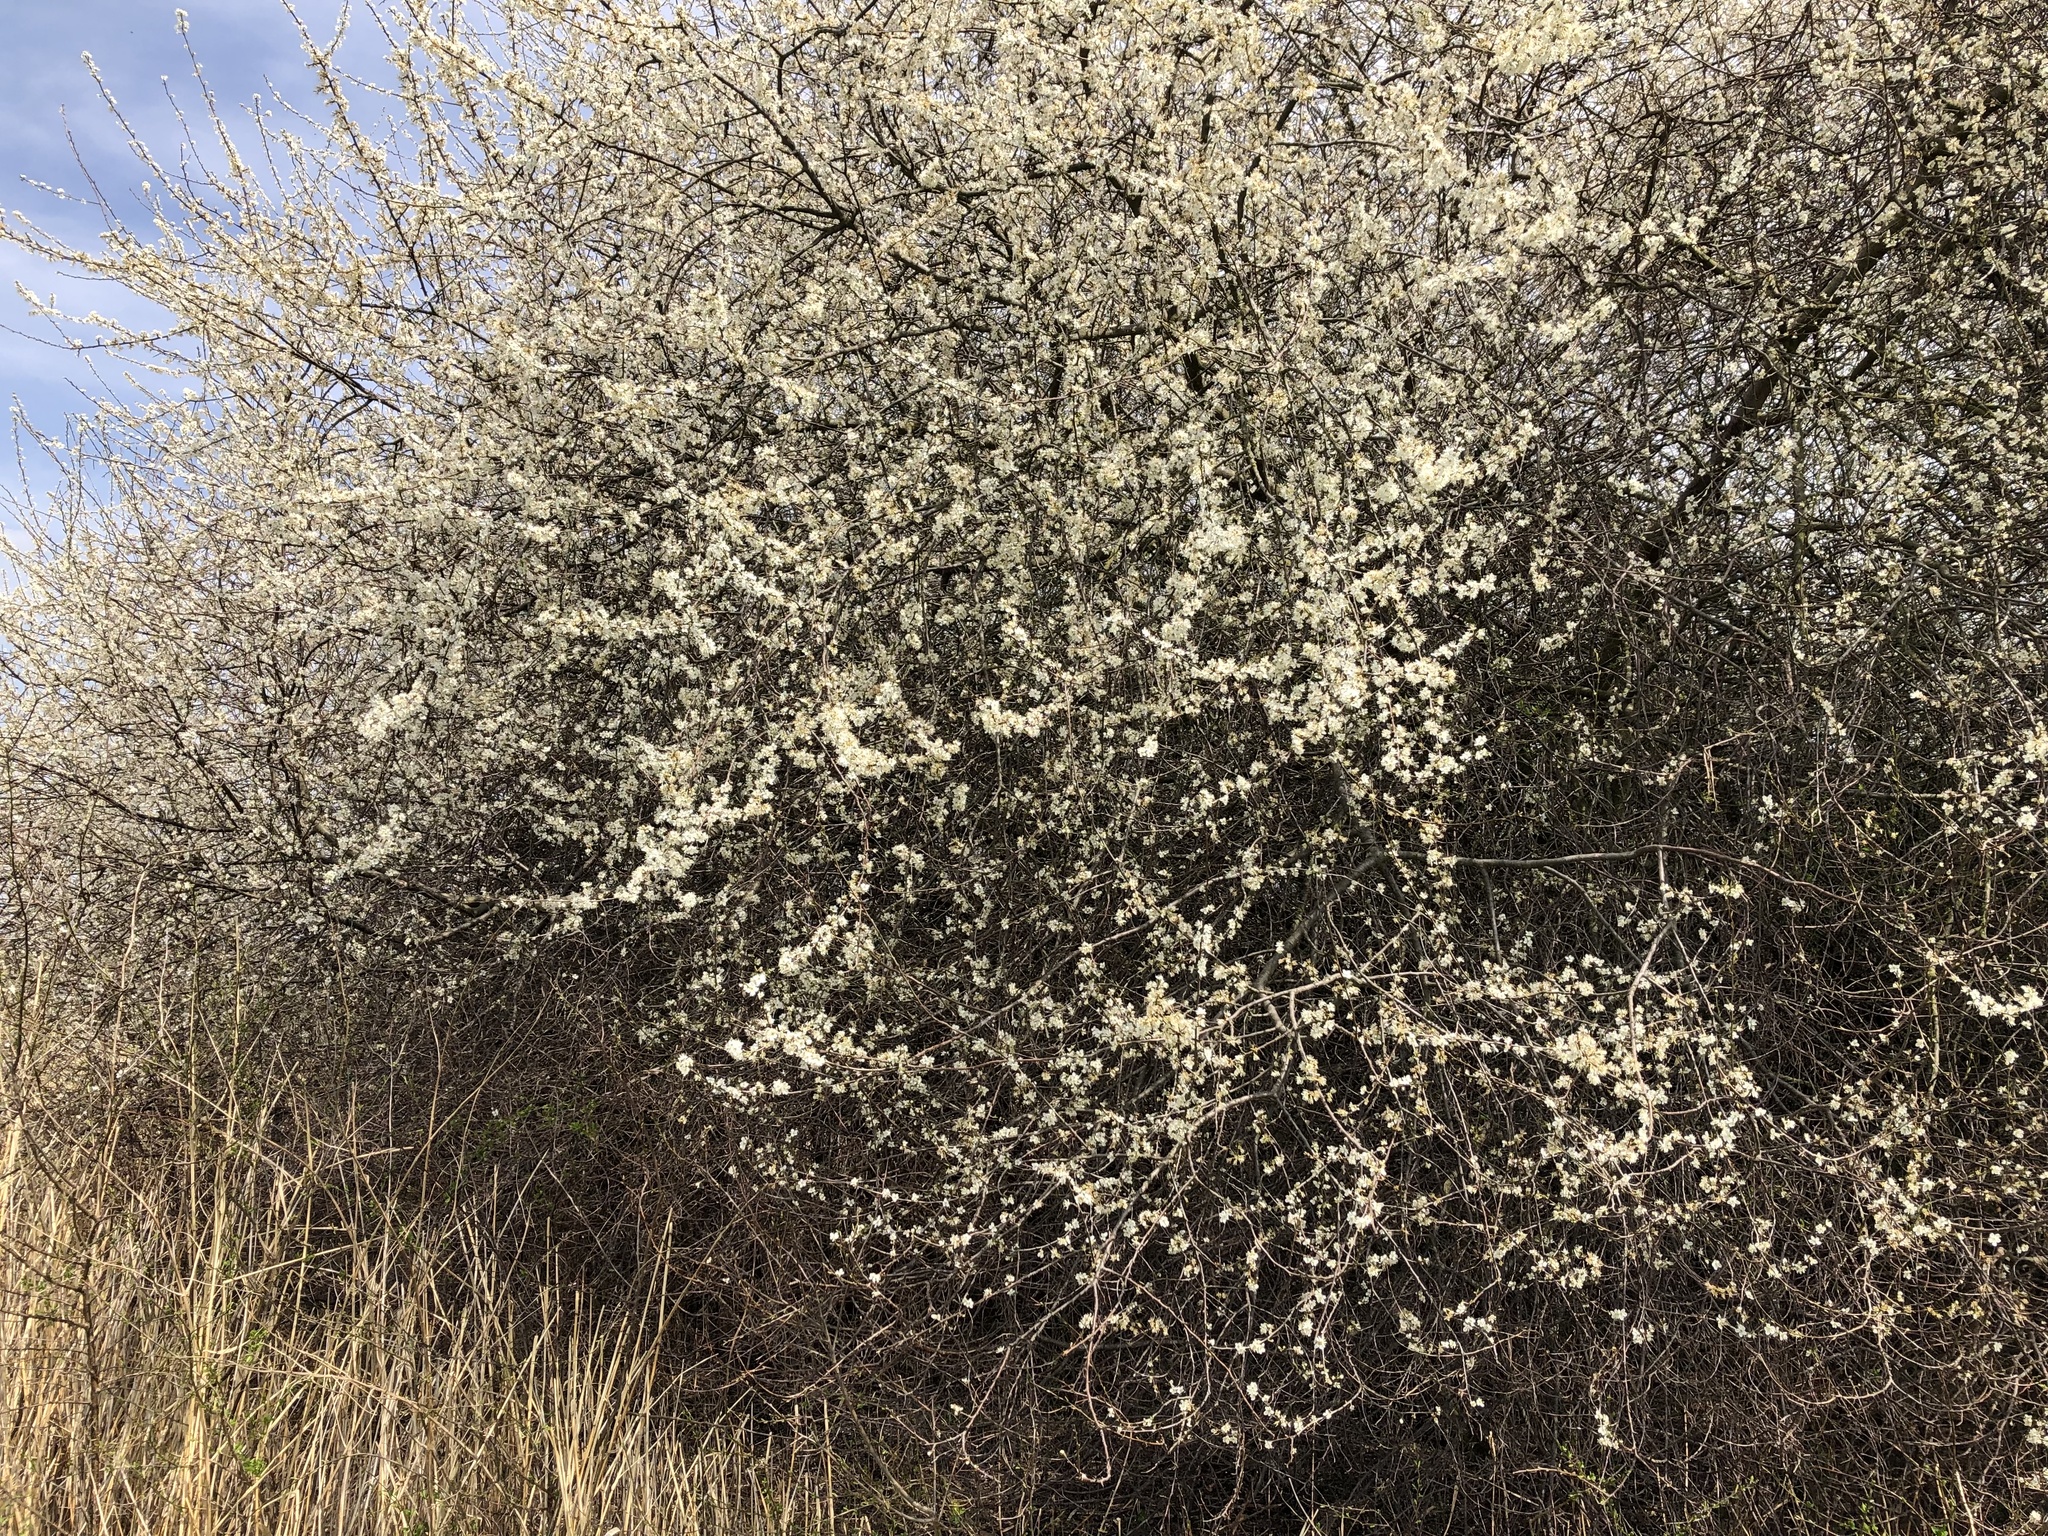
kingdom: Plantae
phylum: Tracheophyta
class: Magnoliopsida
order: Rosales
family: Rosaceae
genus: Prunus
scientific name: Prunus spinosa
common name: Blackthorn
